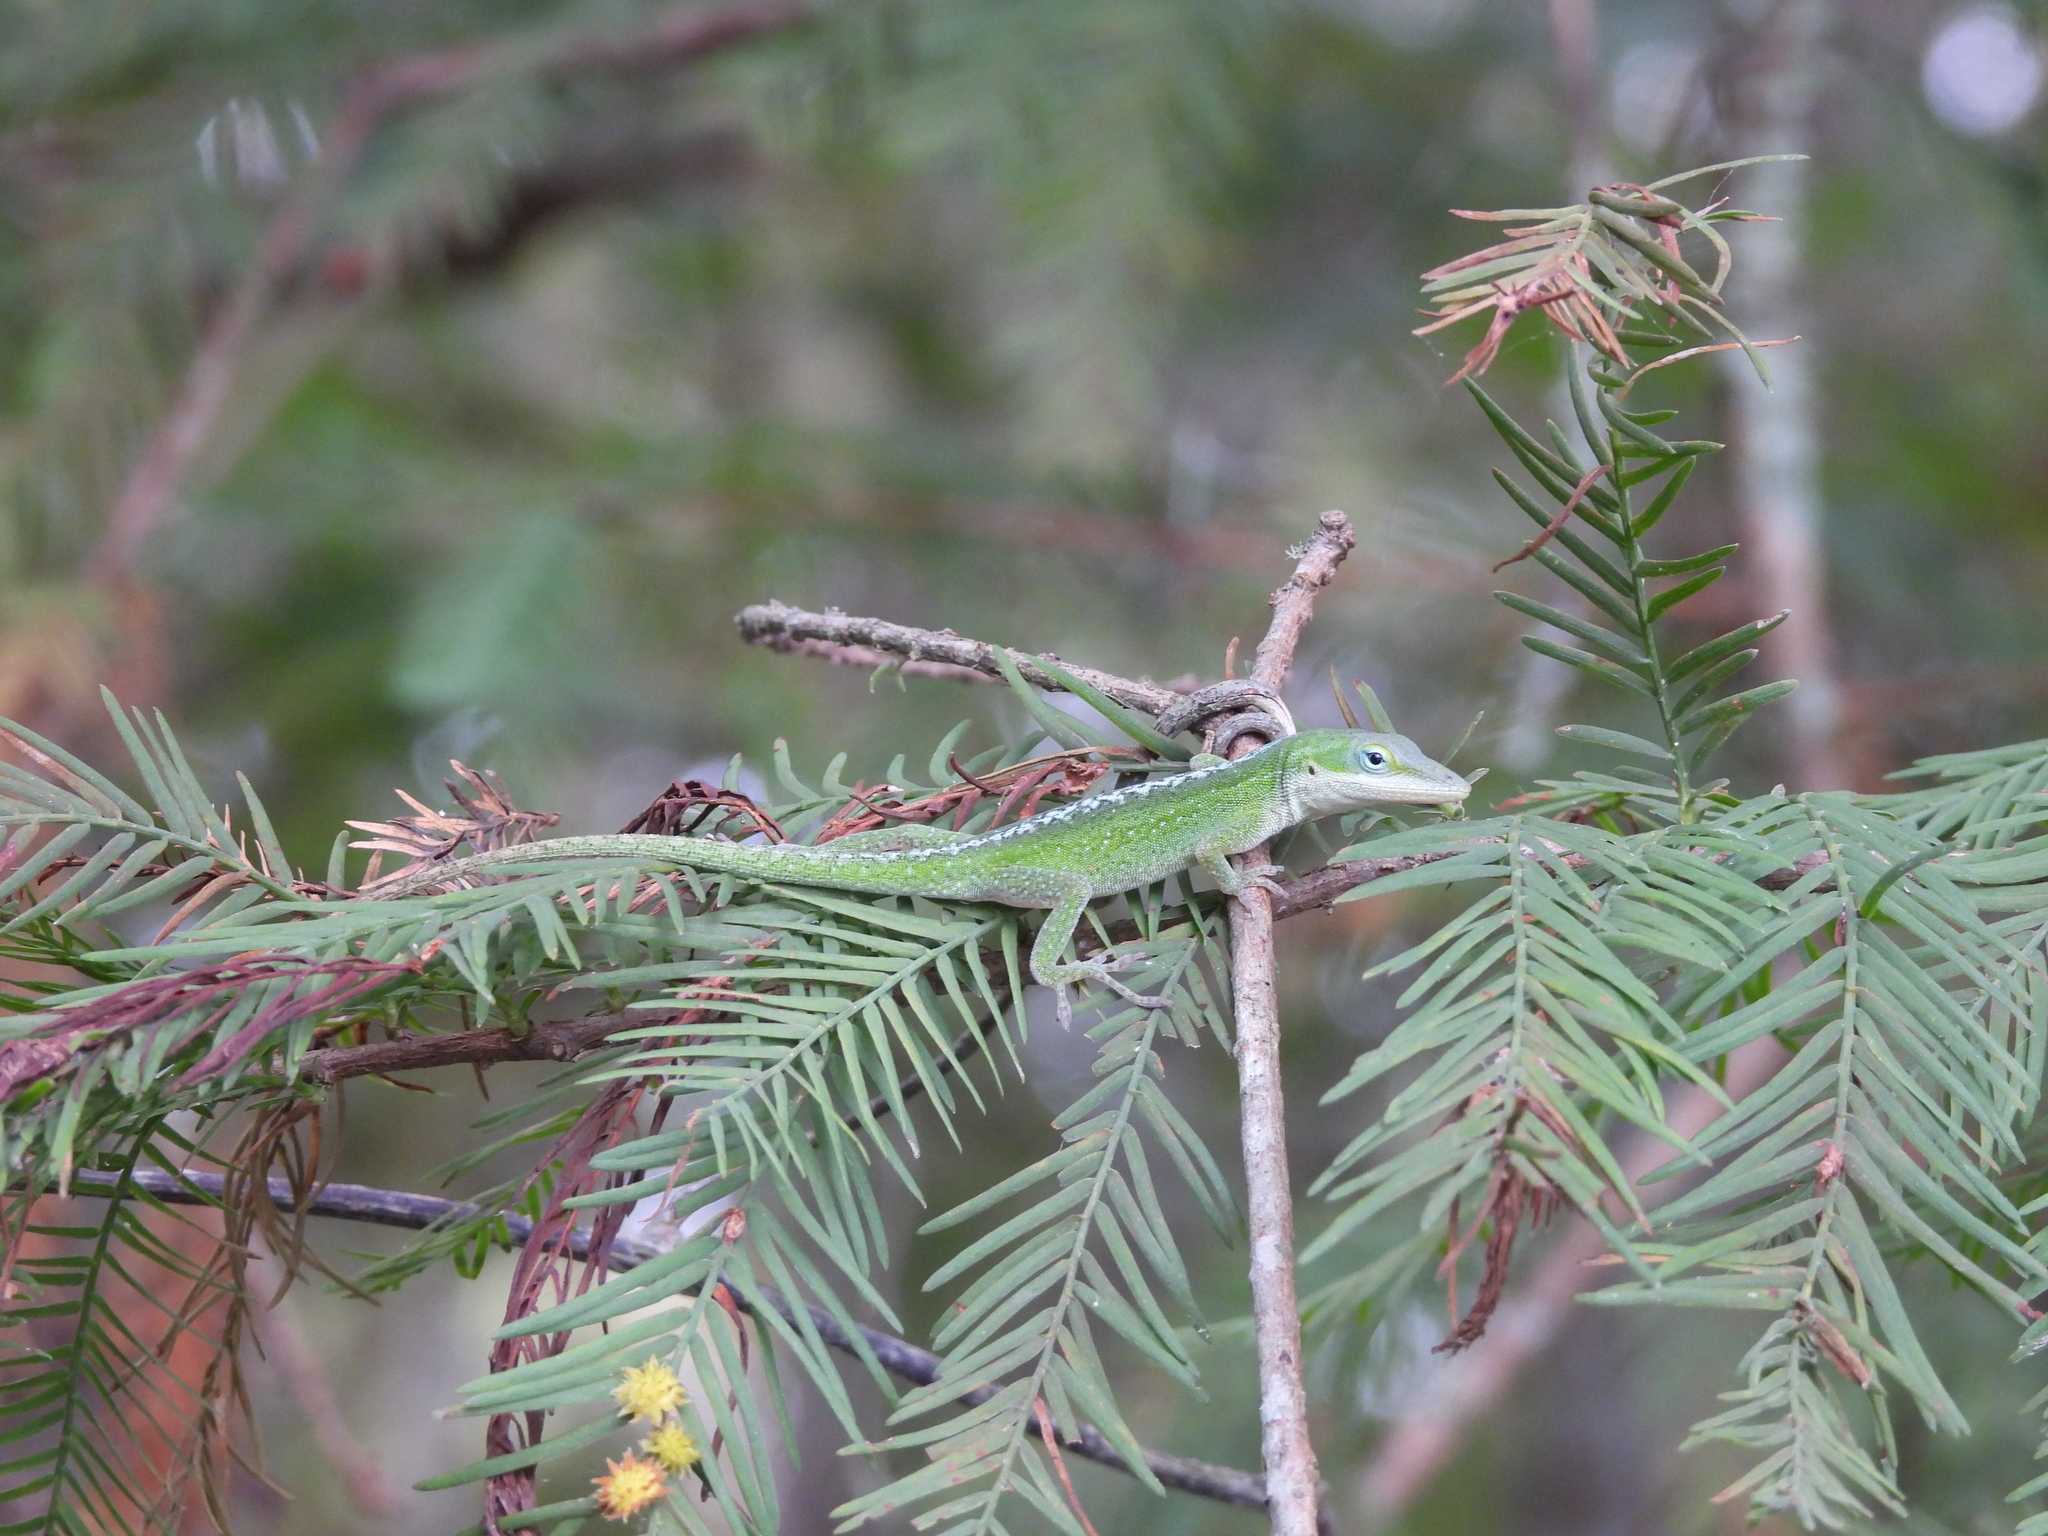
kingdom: Animalia
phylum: Chordata
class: Squamata
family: Dactyloidae
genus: Anolis
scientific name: Anolis carolinensis
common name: Green anole
